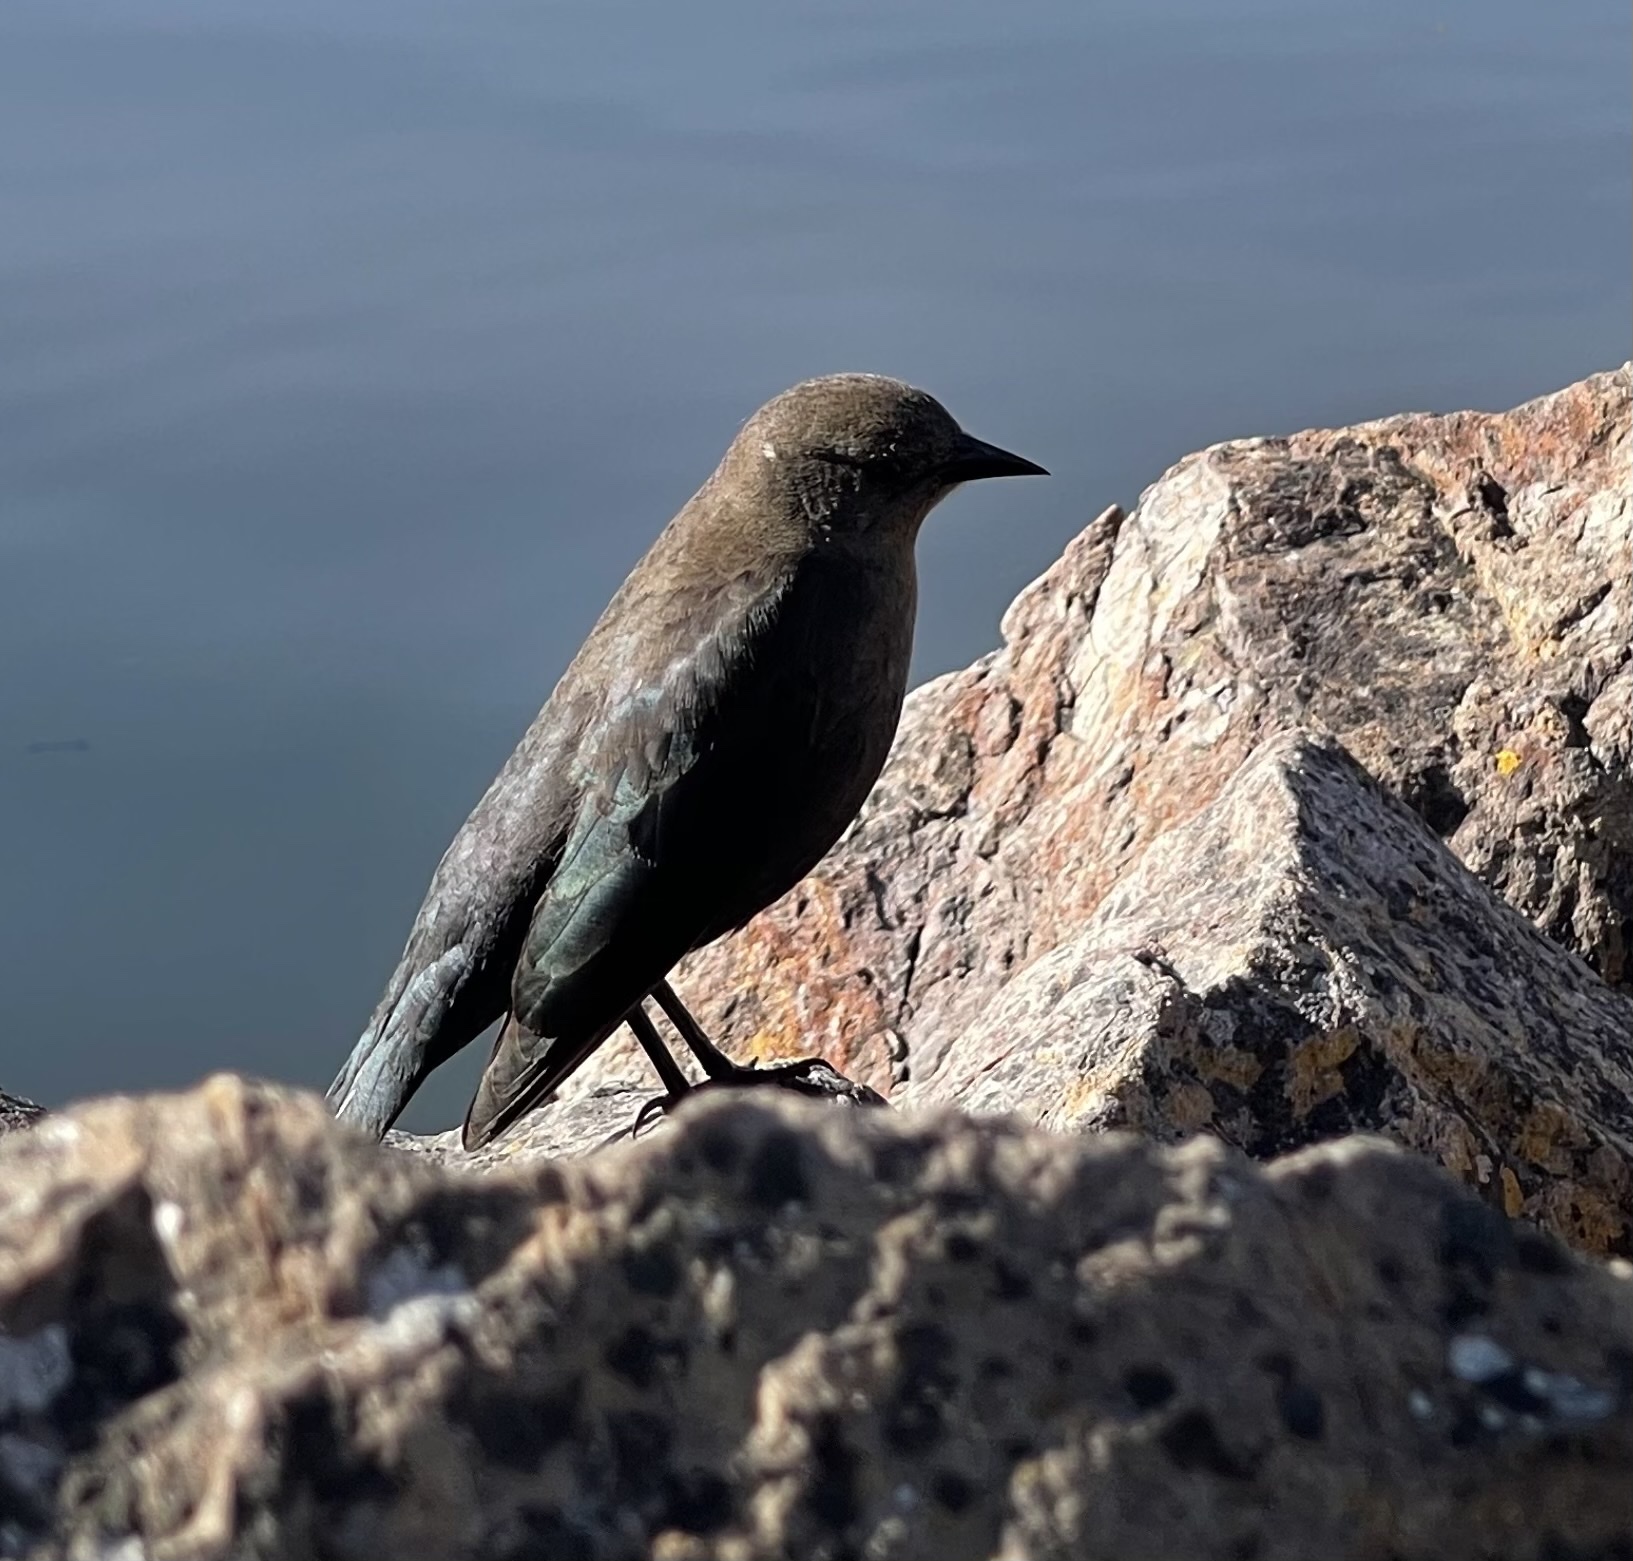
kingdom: Animalia
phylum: Chordata
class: Aves
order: Passeriformes
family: Icteridae
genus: Euphagus
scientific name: Euphagus cyanocephalus
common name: Brewer's blackbird
